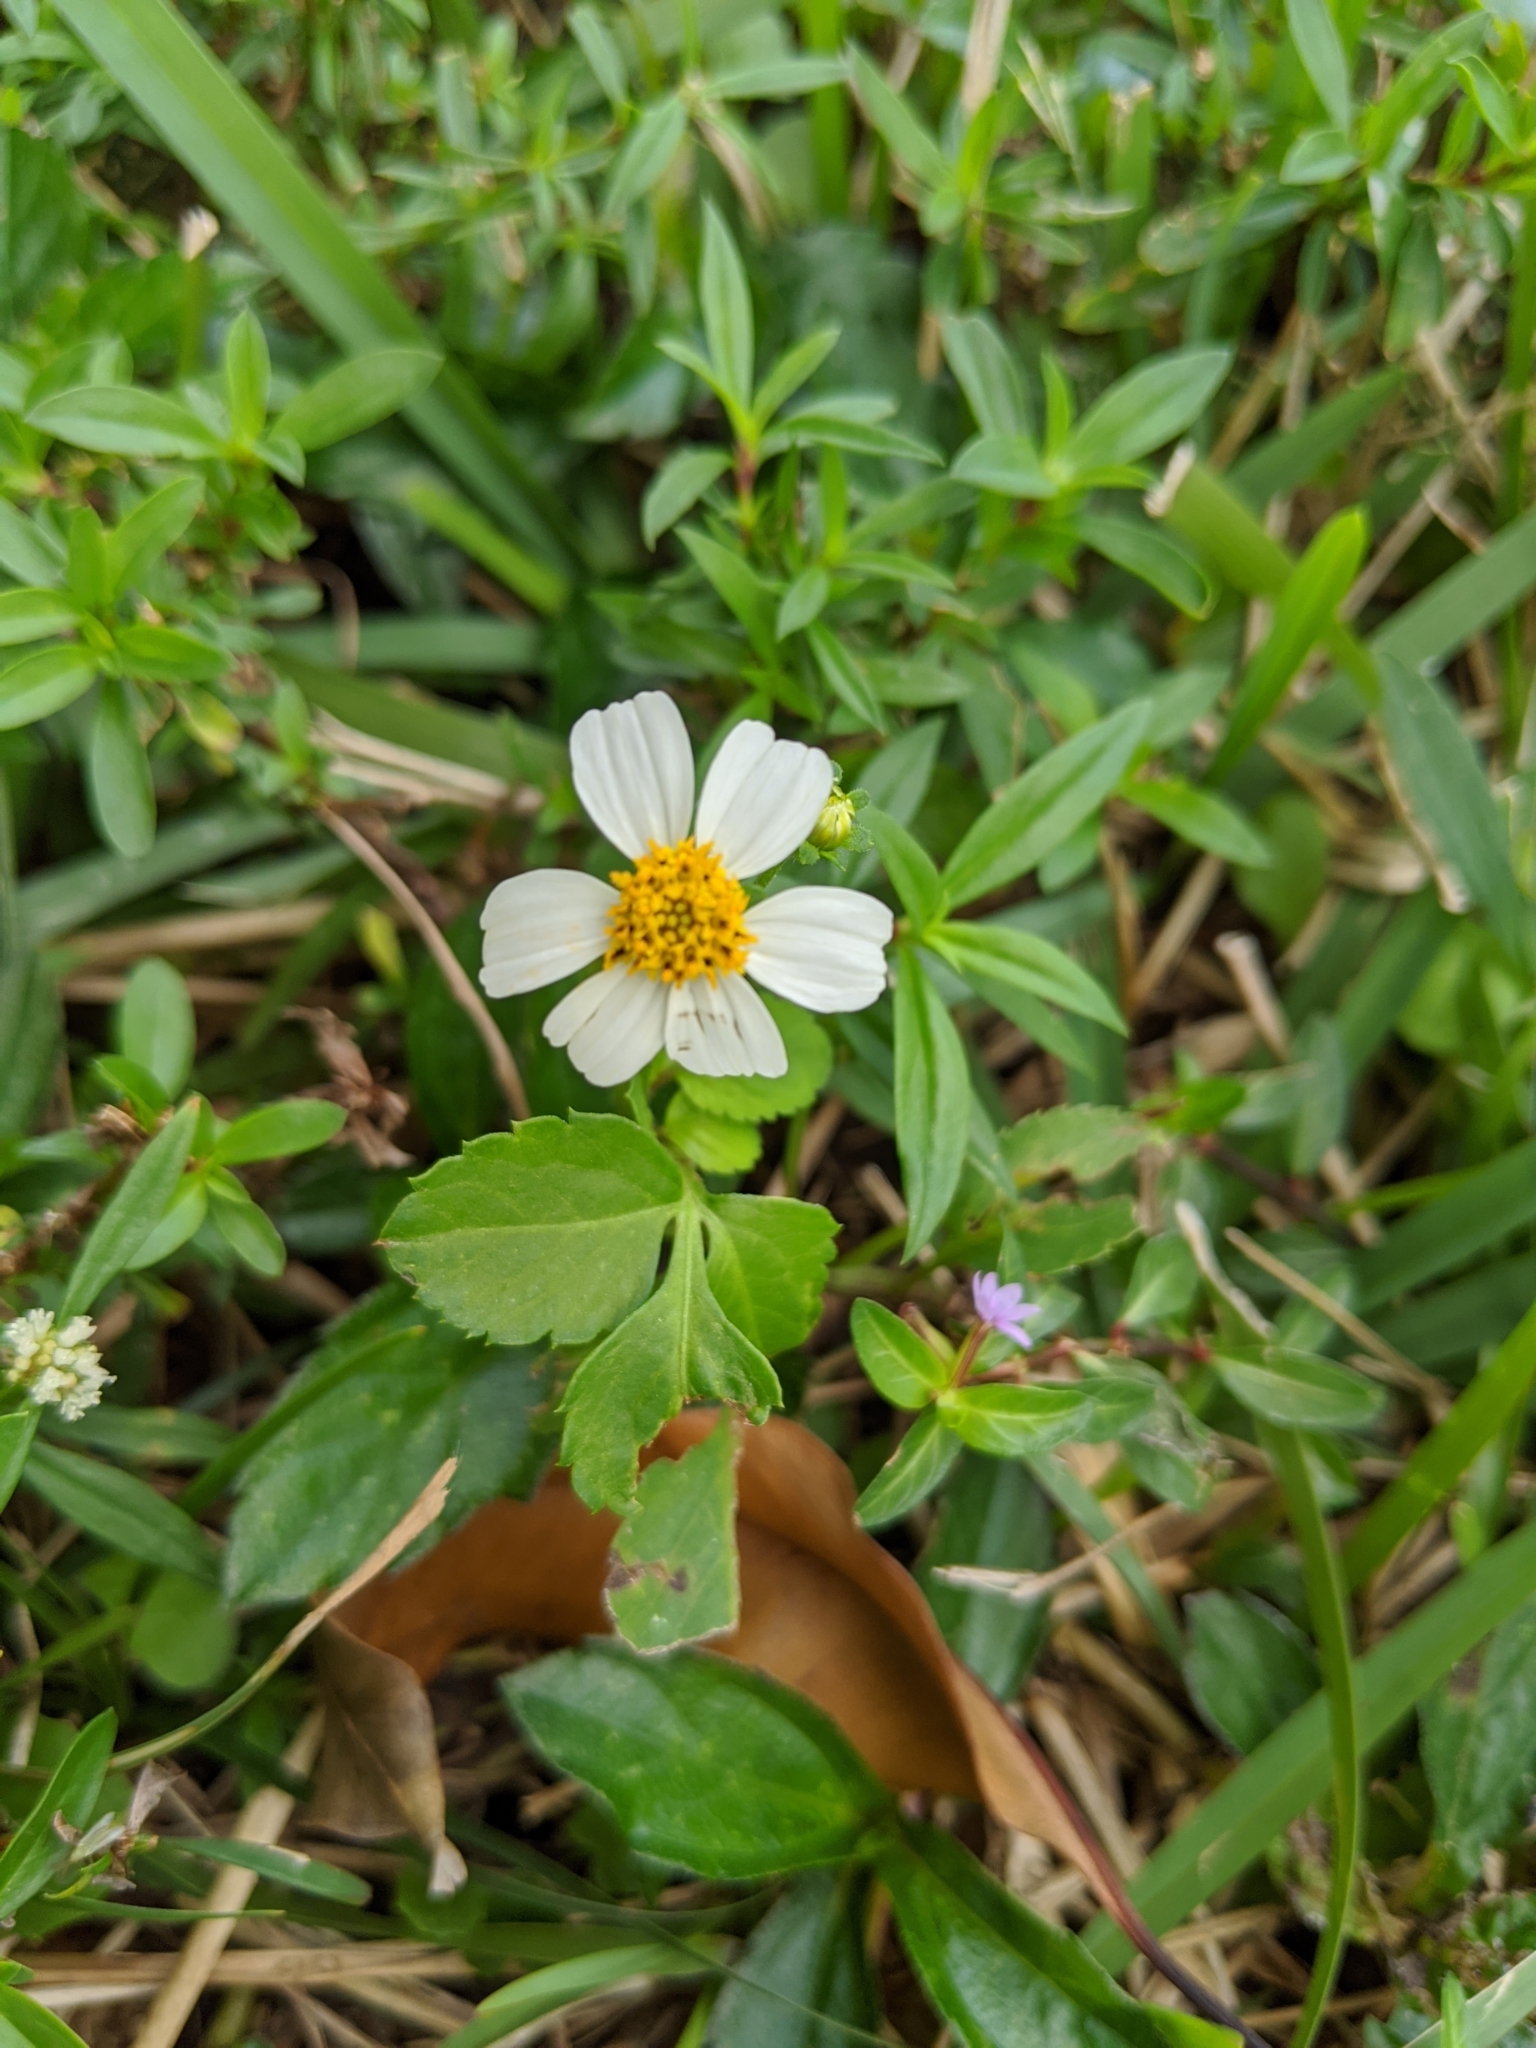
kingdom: Plantae
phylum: Tracheophyta
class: Magnoliopsida
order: Asterales
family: Asteraceae
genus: Bidens
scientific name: Bidens alba
